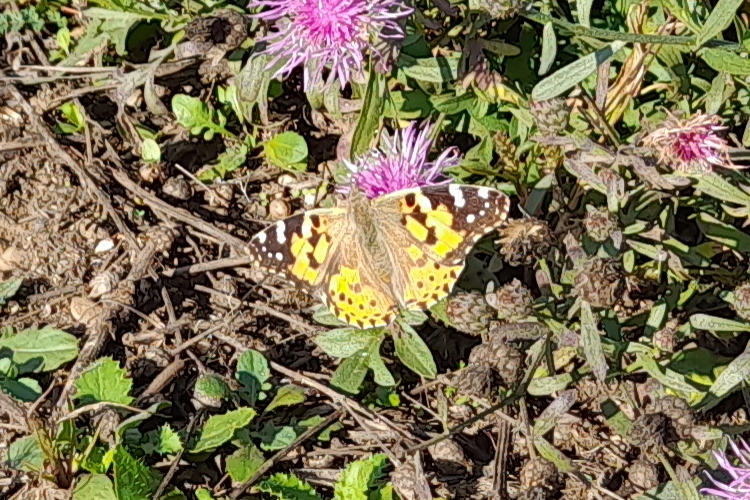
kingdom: Animalia
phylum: Arthropoda
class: Insecta
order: Lepidoptera
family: Nymphalidae
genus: Vanessa
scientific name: Vanessa cardui
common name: Painted lady
